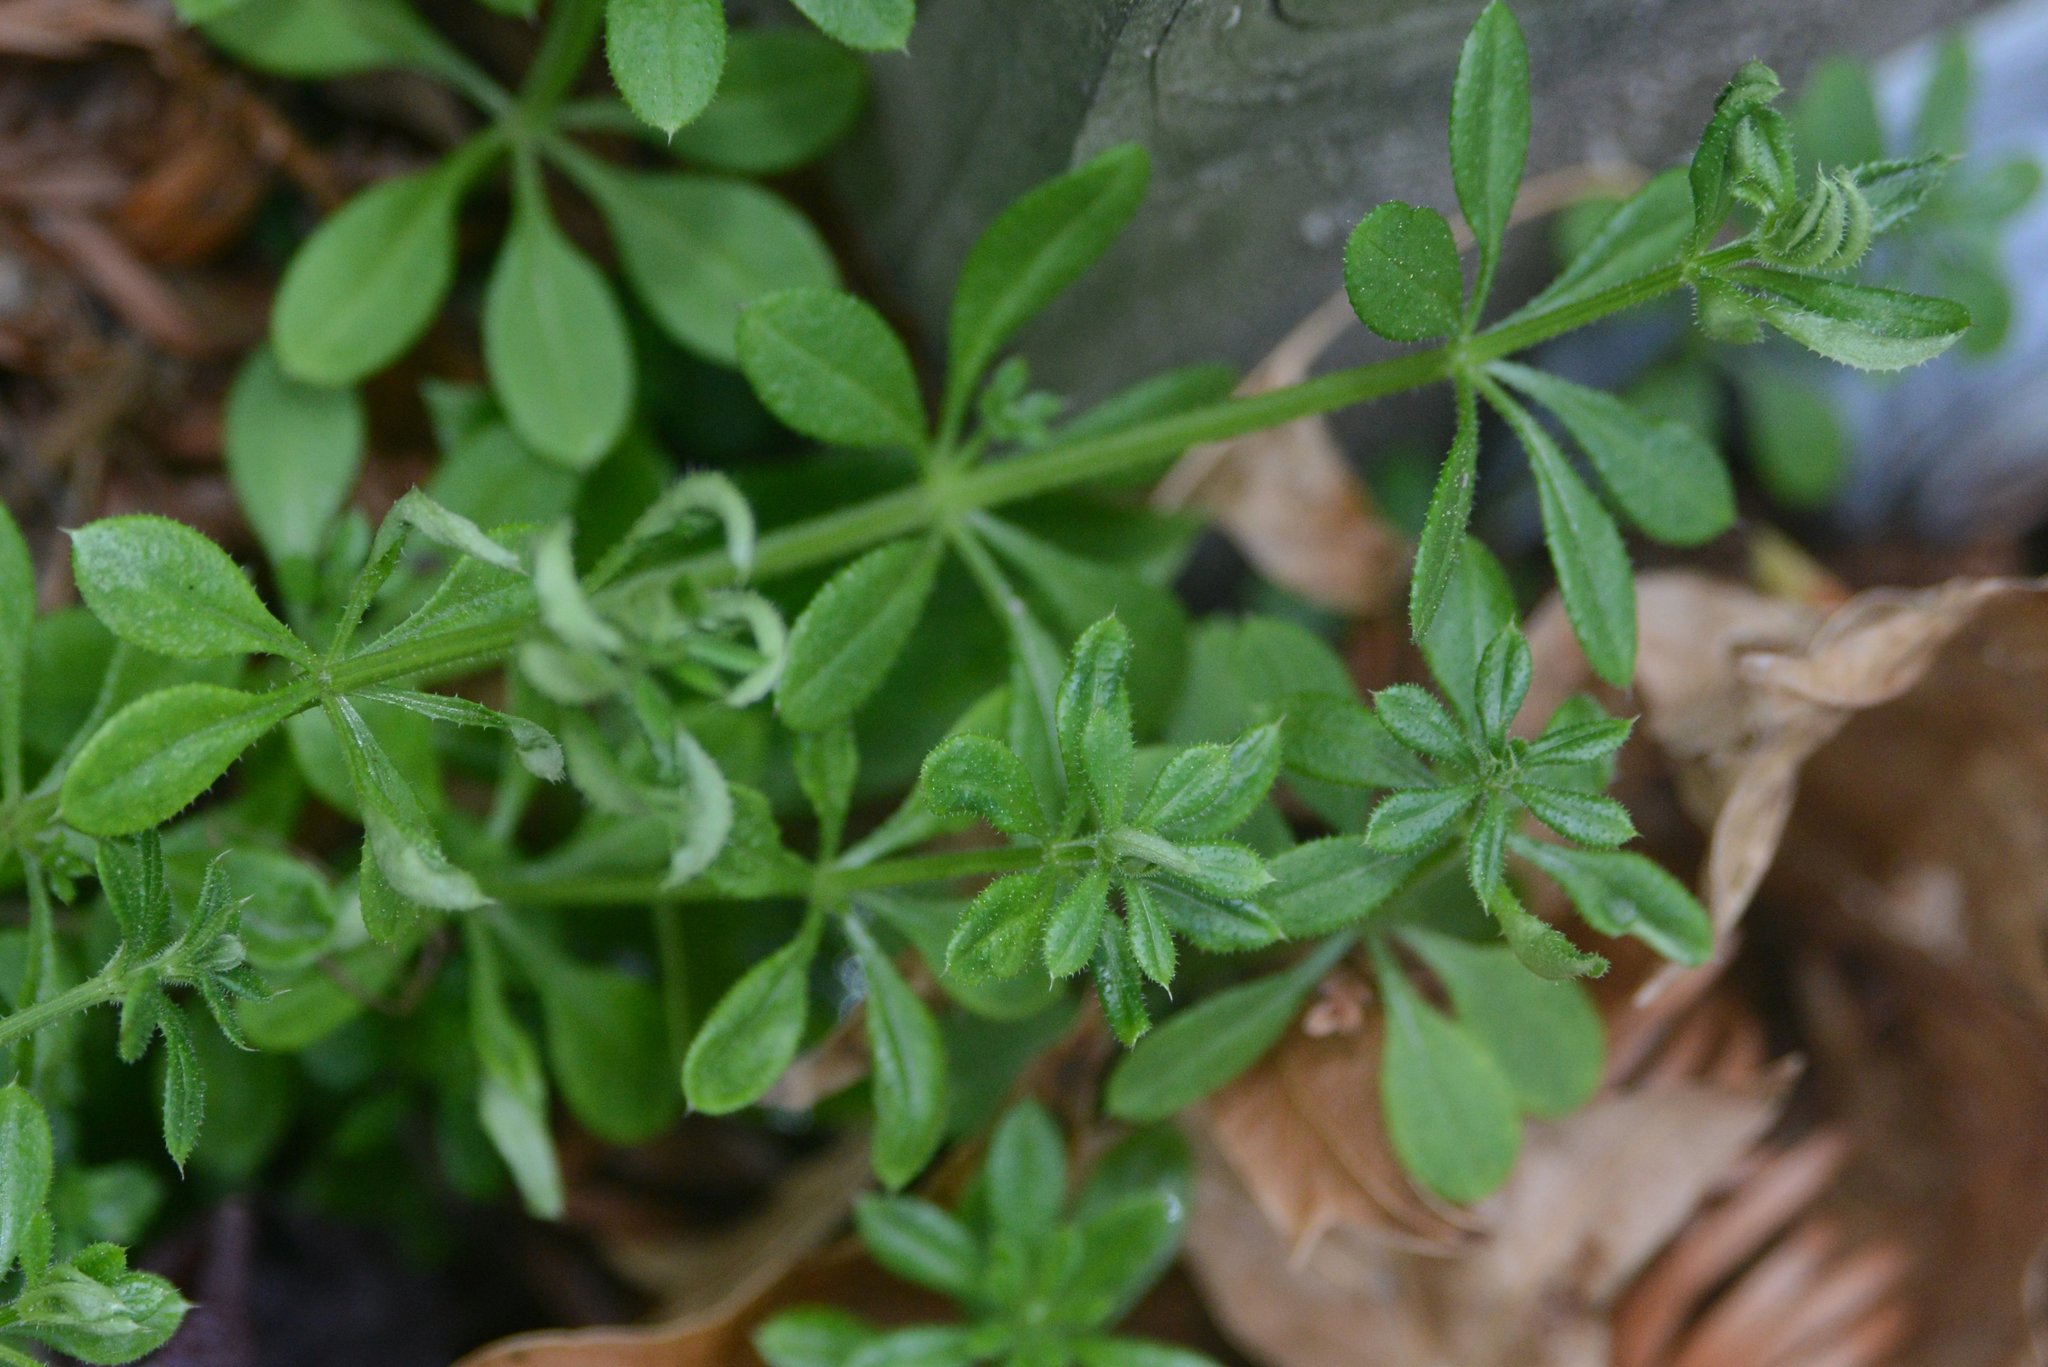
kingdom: Animalia
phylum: Arthropoda
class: Arachnida
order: Trombidiformes
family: Eriophyidae
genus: Cecidophyes
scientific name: Cecidophyes rouhollahi
